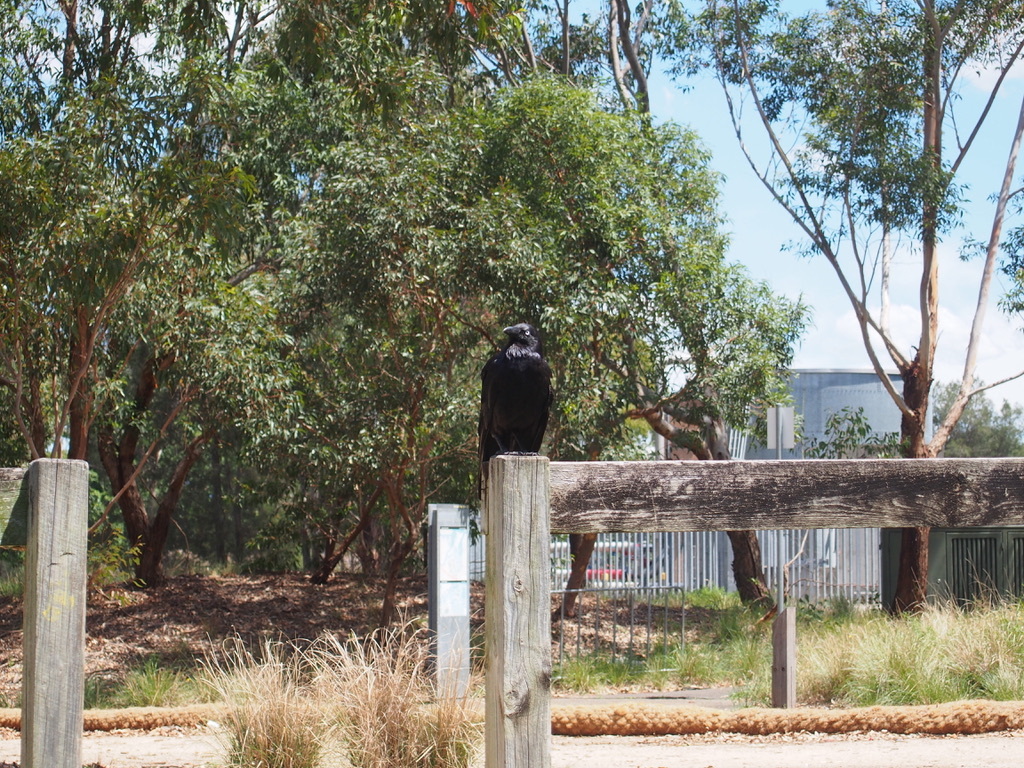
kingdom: Animalia
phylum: Chordata
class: Aves
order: Passeriformes
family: Corvidae
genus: Corvus
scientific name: Corvus coronoides
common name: Australian raven
